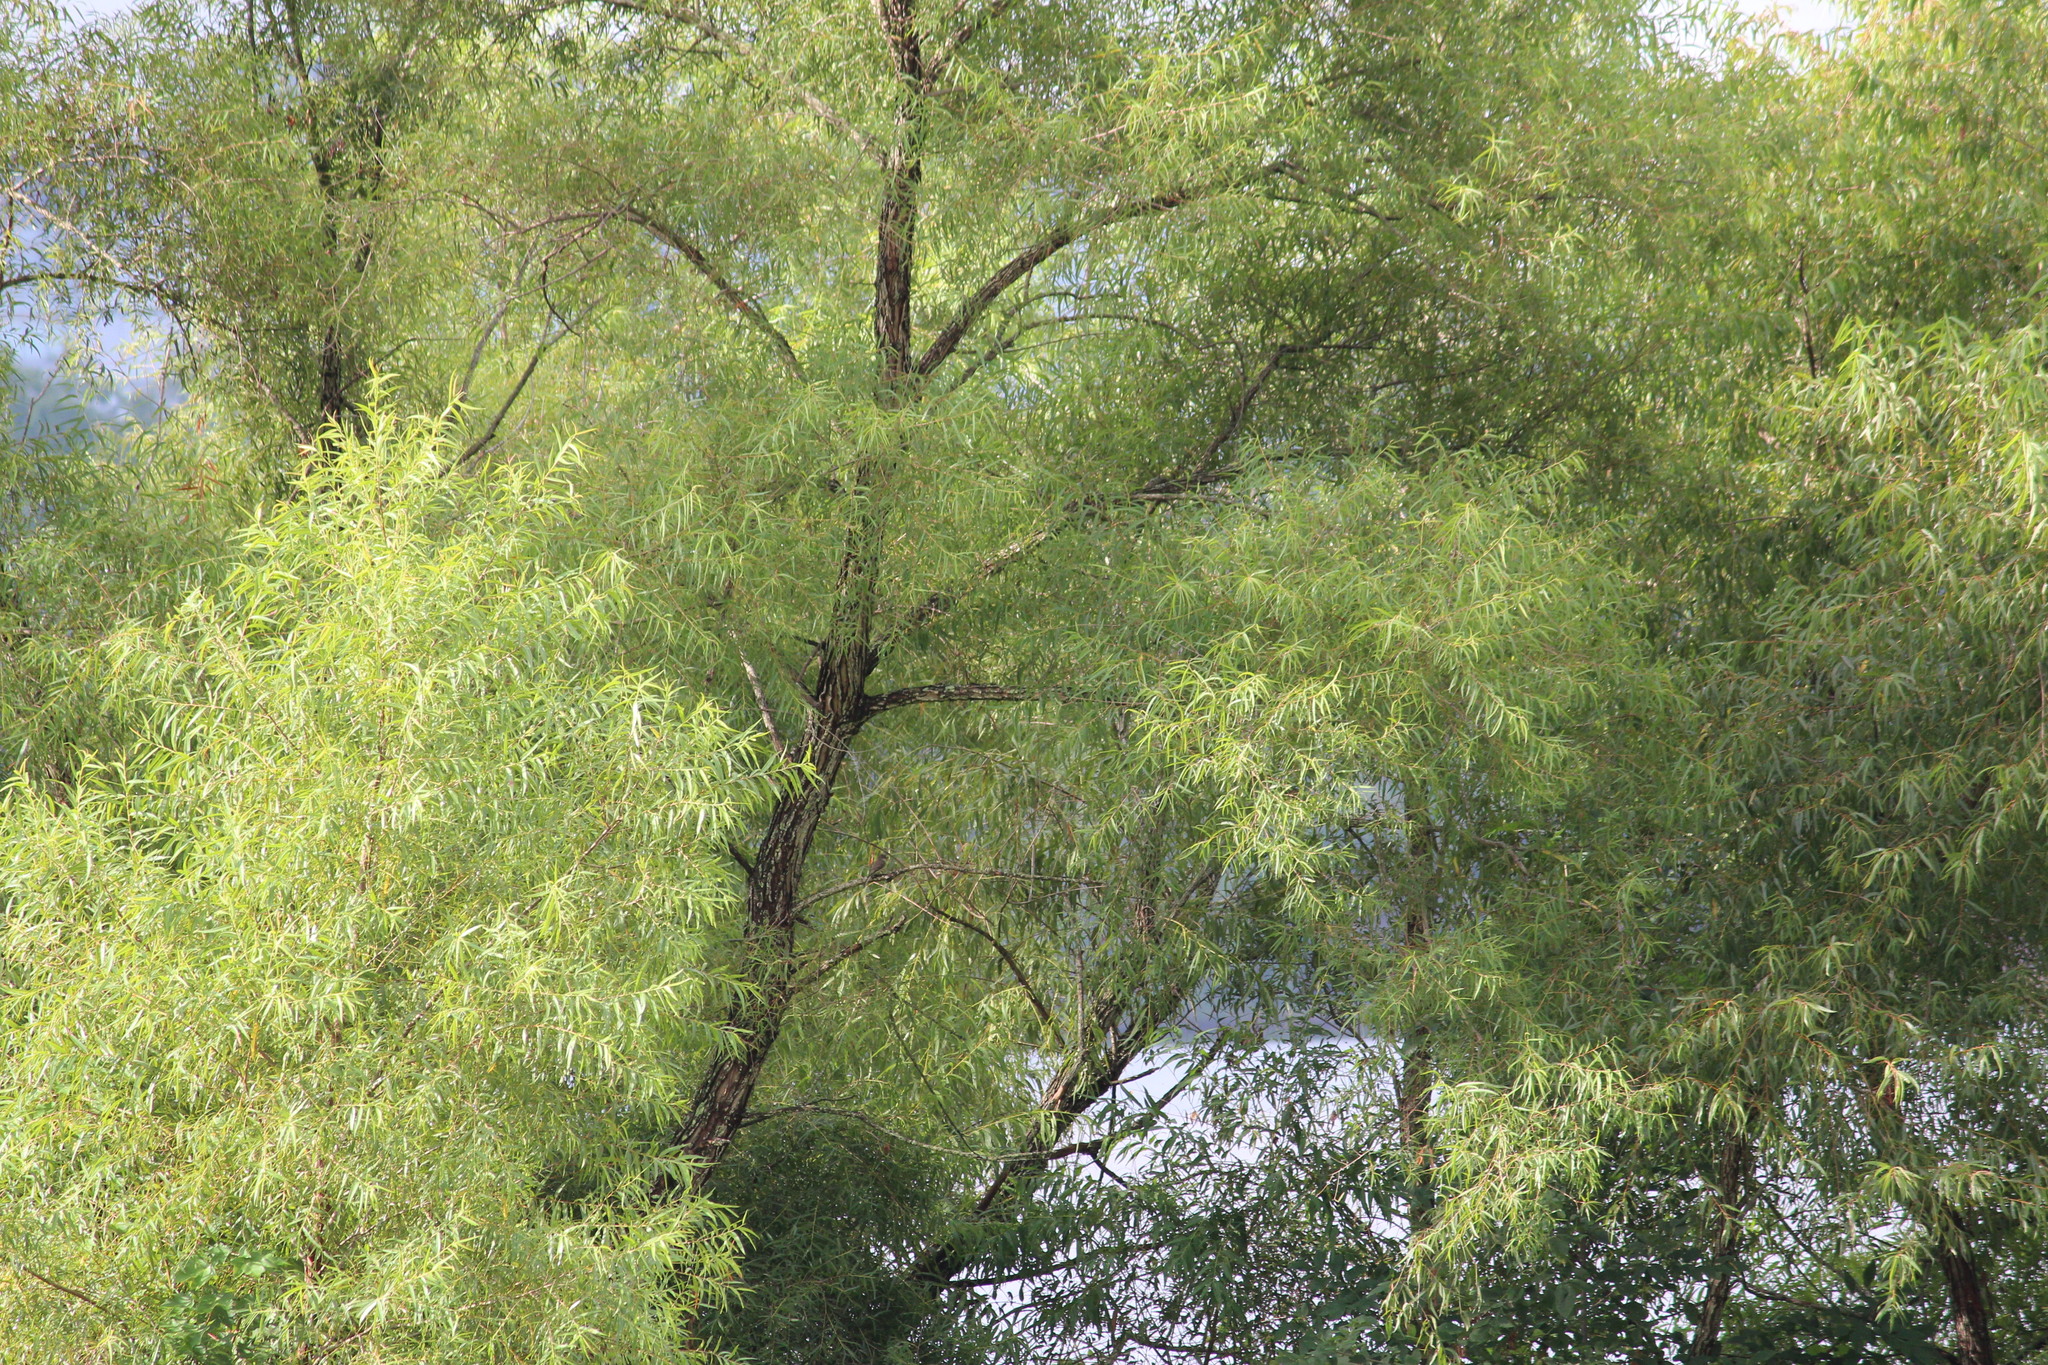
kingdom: Plantae
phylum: Tracheophyta
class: Magnoliopsida
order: Malpighiales
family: Salicaceae
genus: Salix
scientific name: Salix nigra
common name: Black willow
